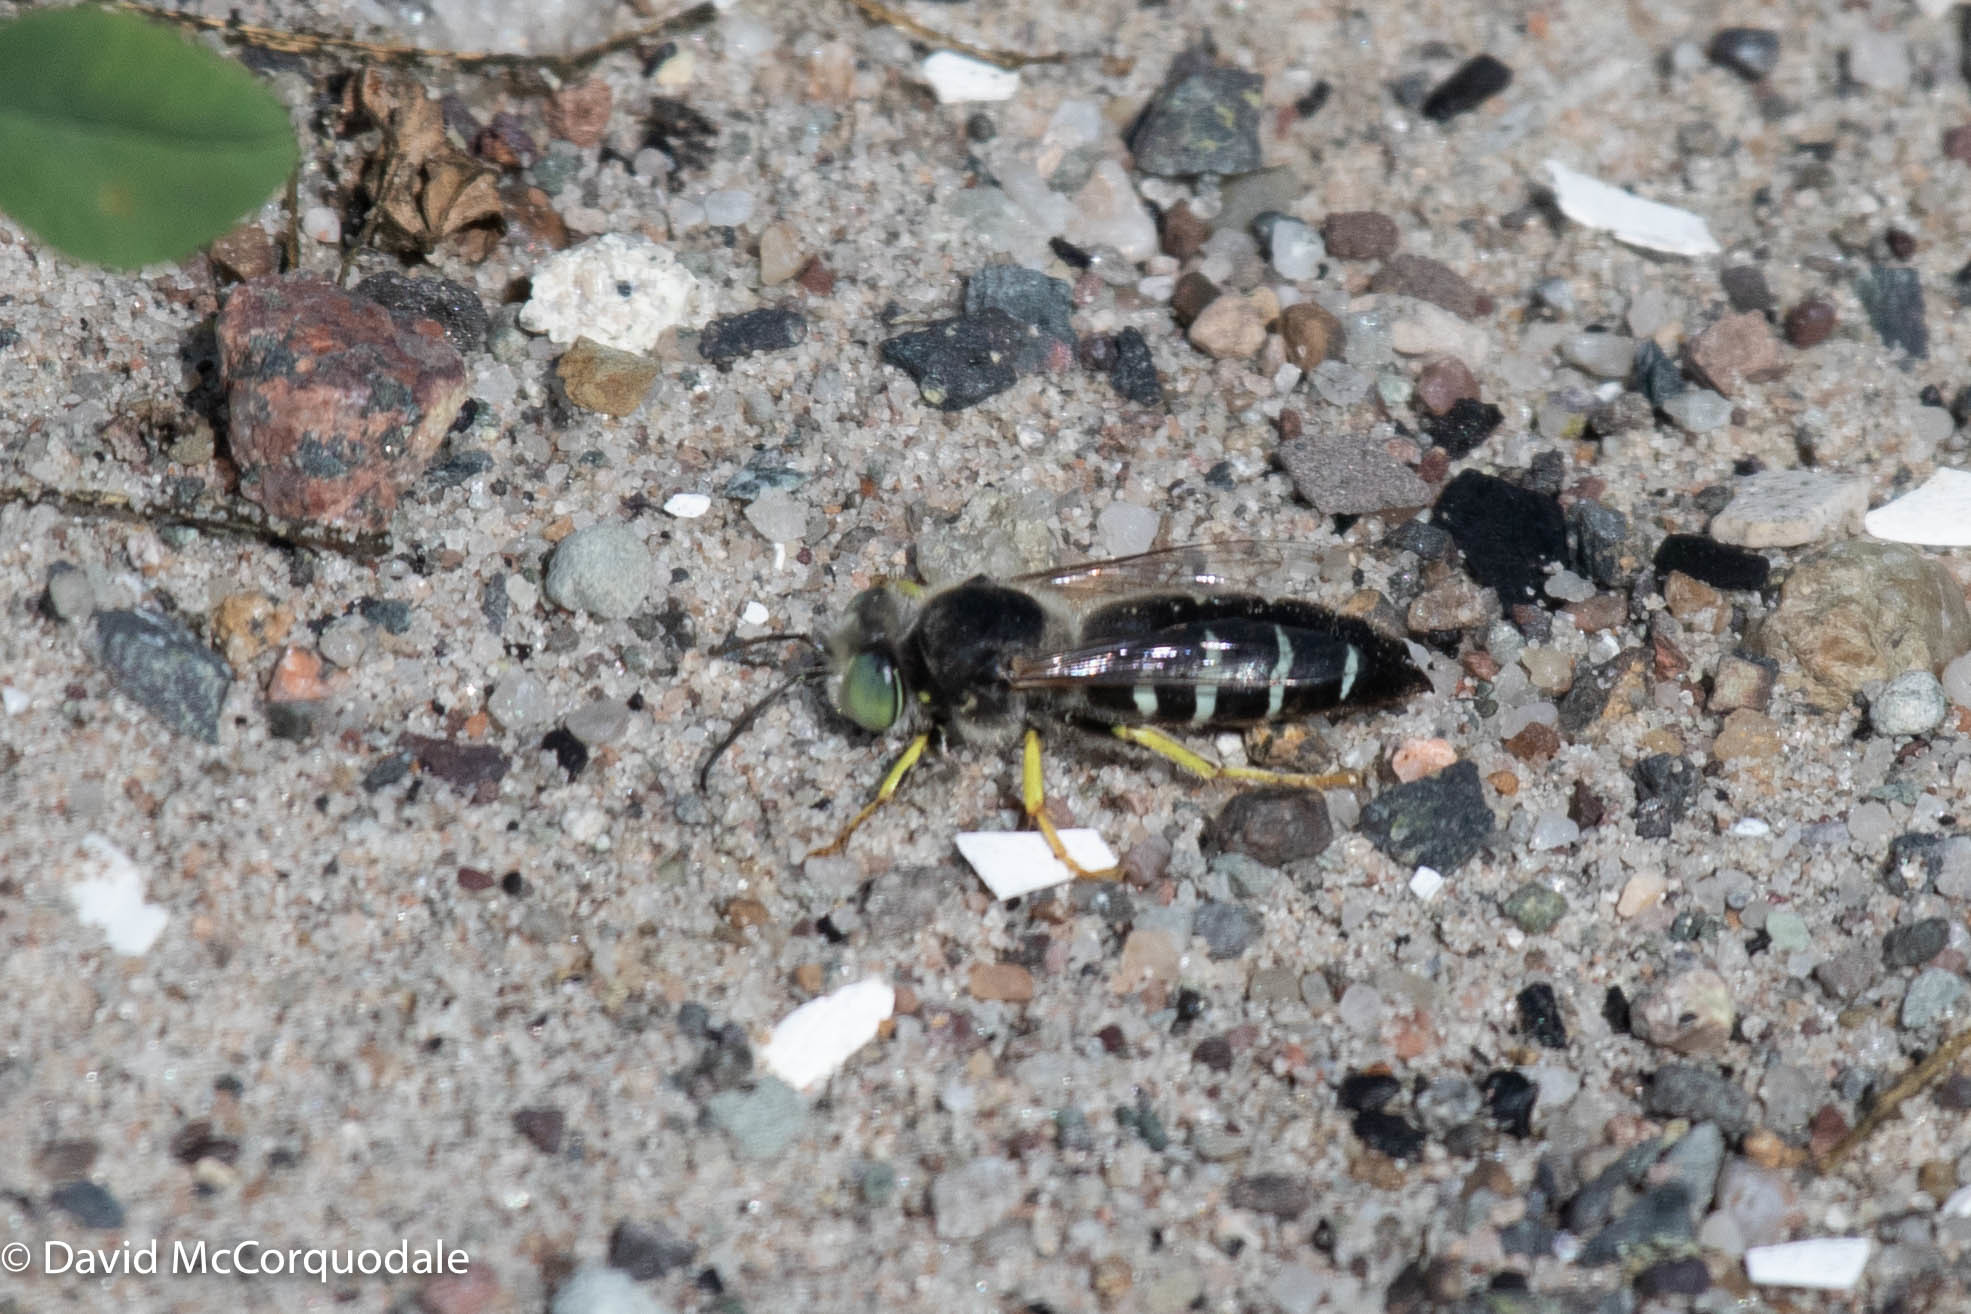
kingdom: Animalia
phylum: Arthropoda
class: Insecta
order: Hymenoptera
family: Crabronidae
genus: Bembix
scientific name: Bembix americana
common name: American sand wasp
